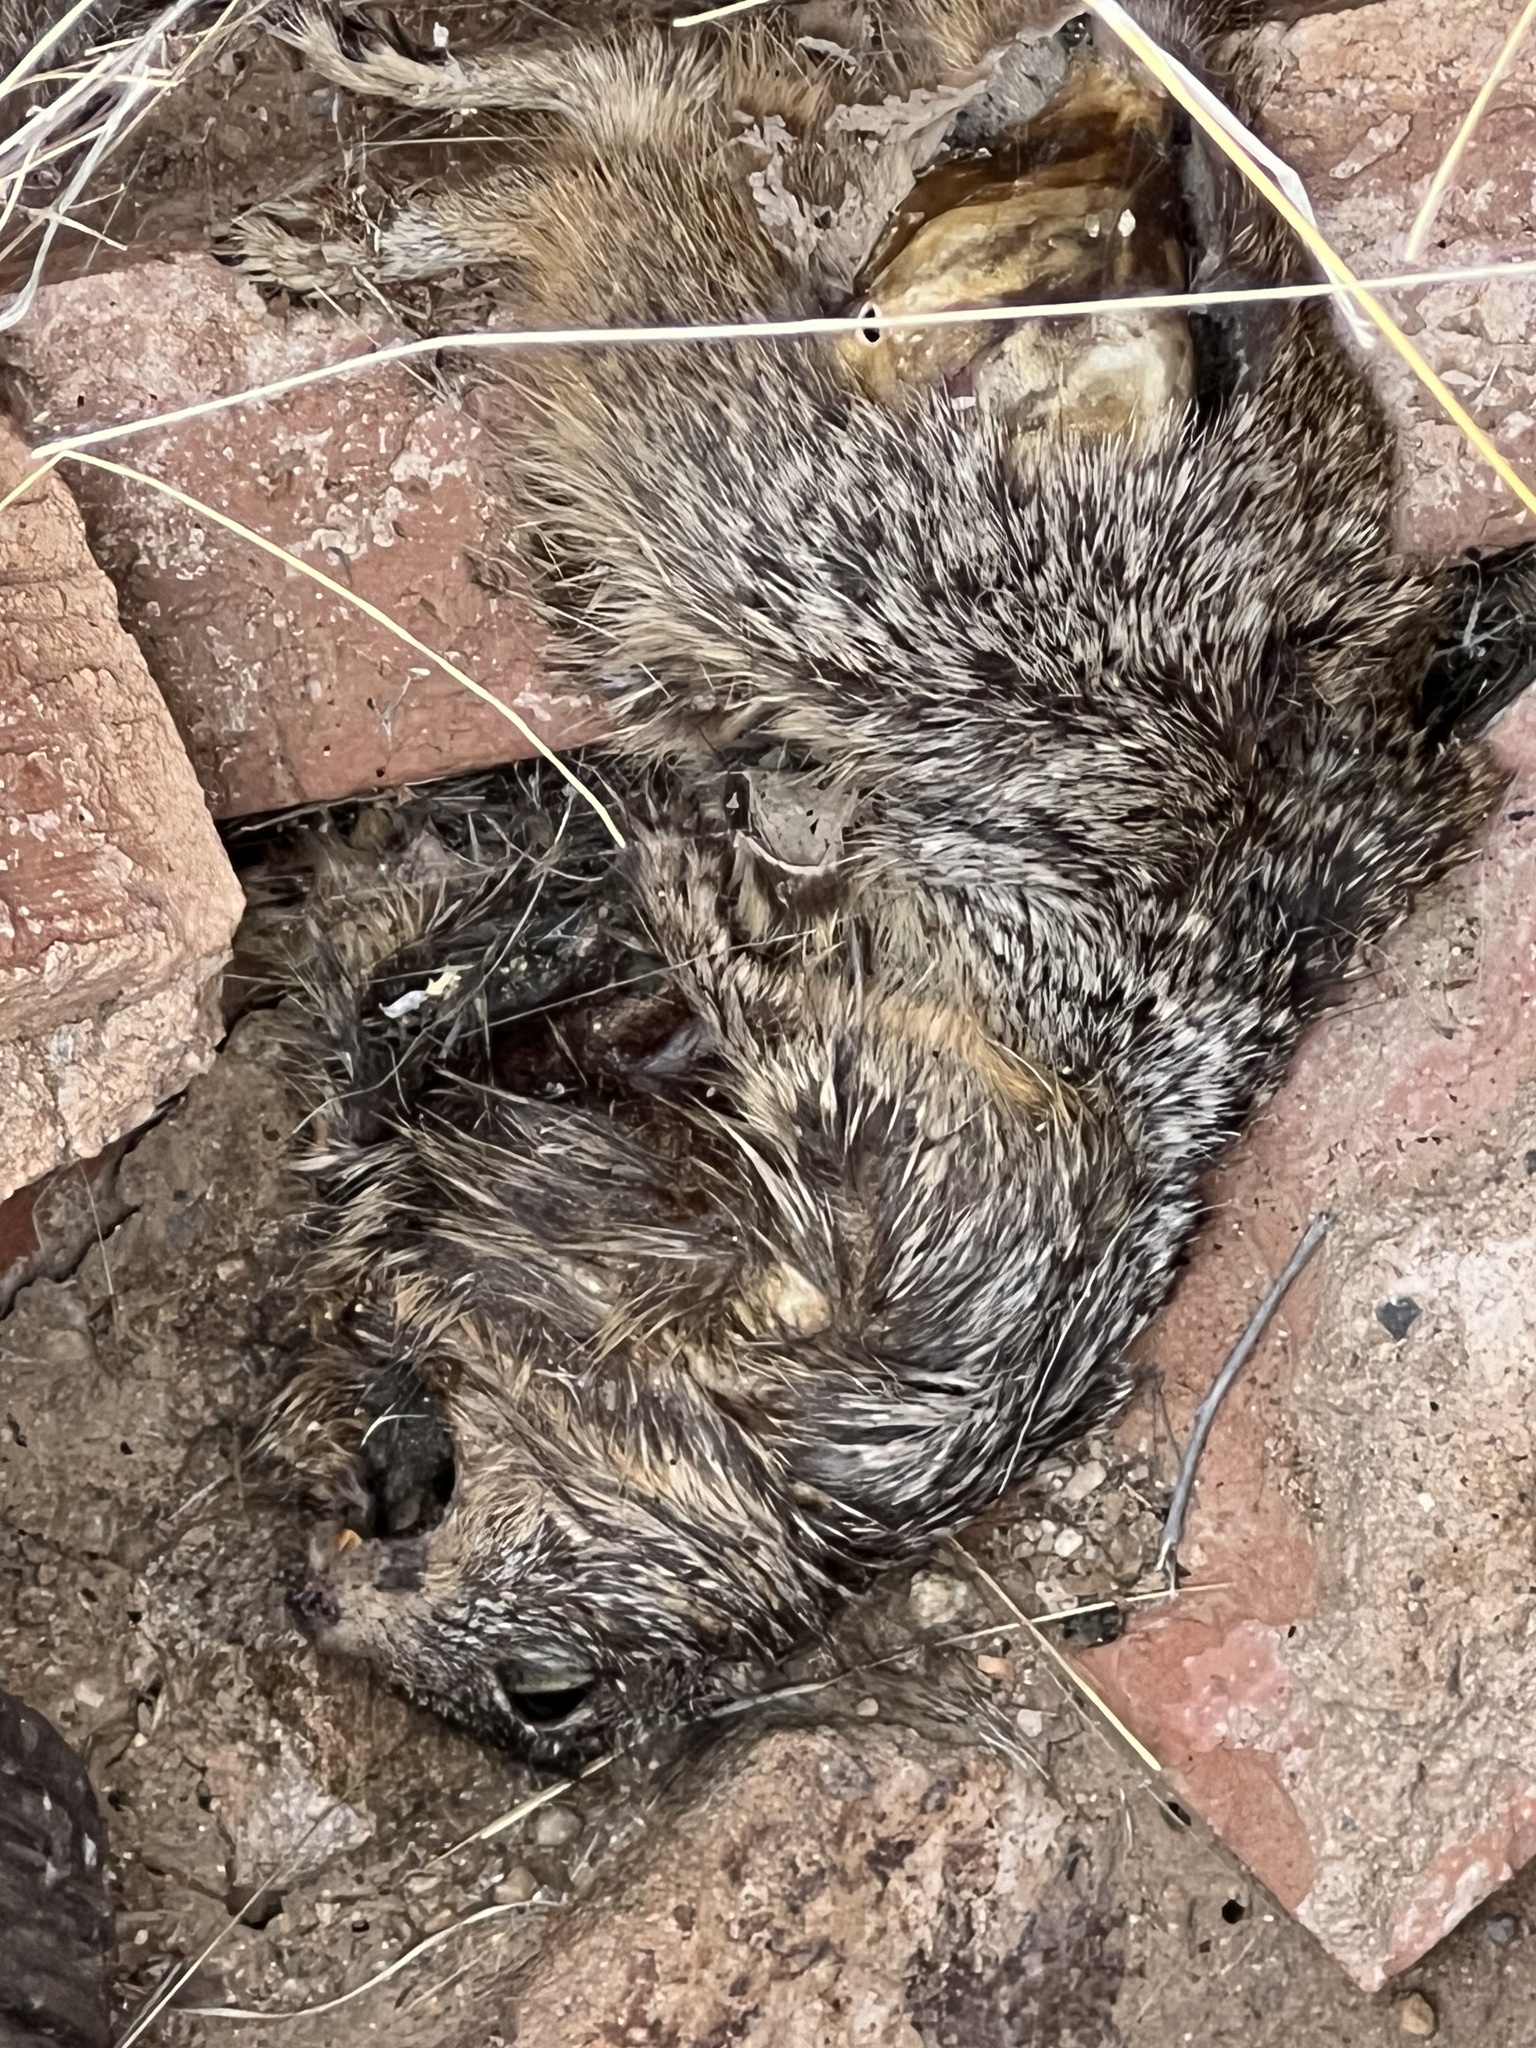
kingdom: Animalia
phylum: Chordata
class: Mammalia
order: Rodentia
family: Sciuridae
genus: Otospermophilus
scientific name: Otospermophilus variegatus
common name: Rock squirrel
